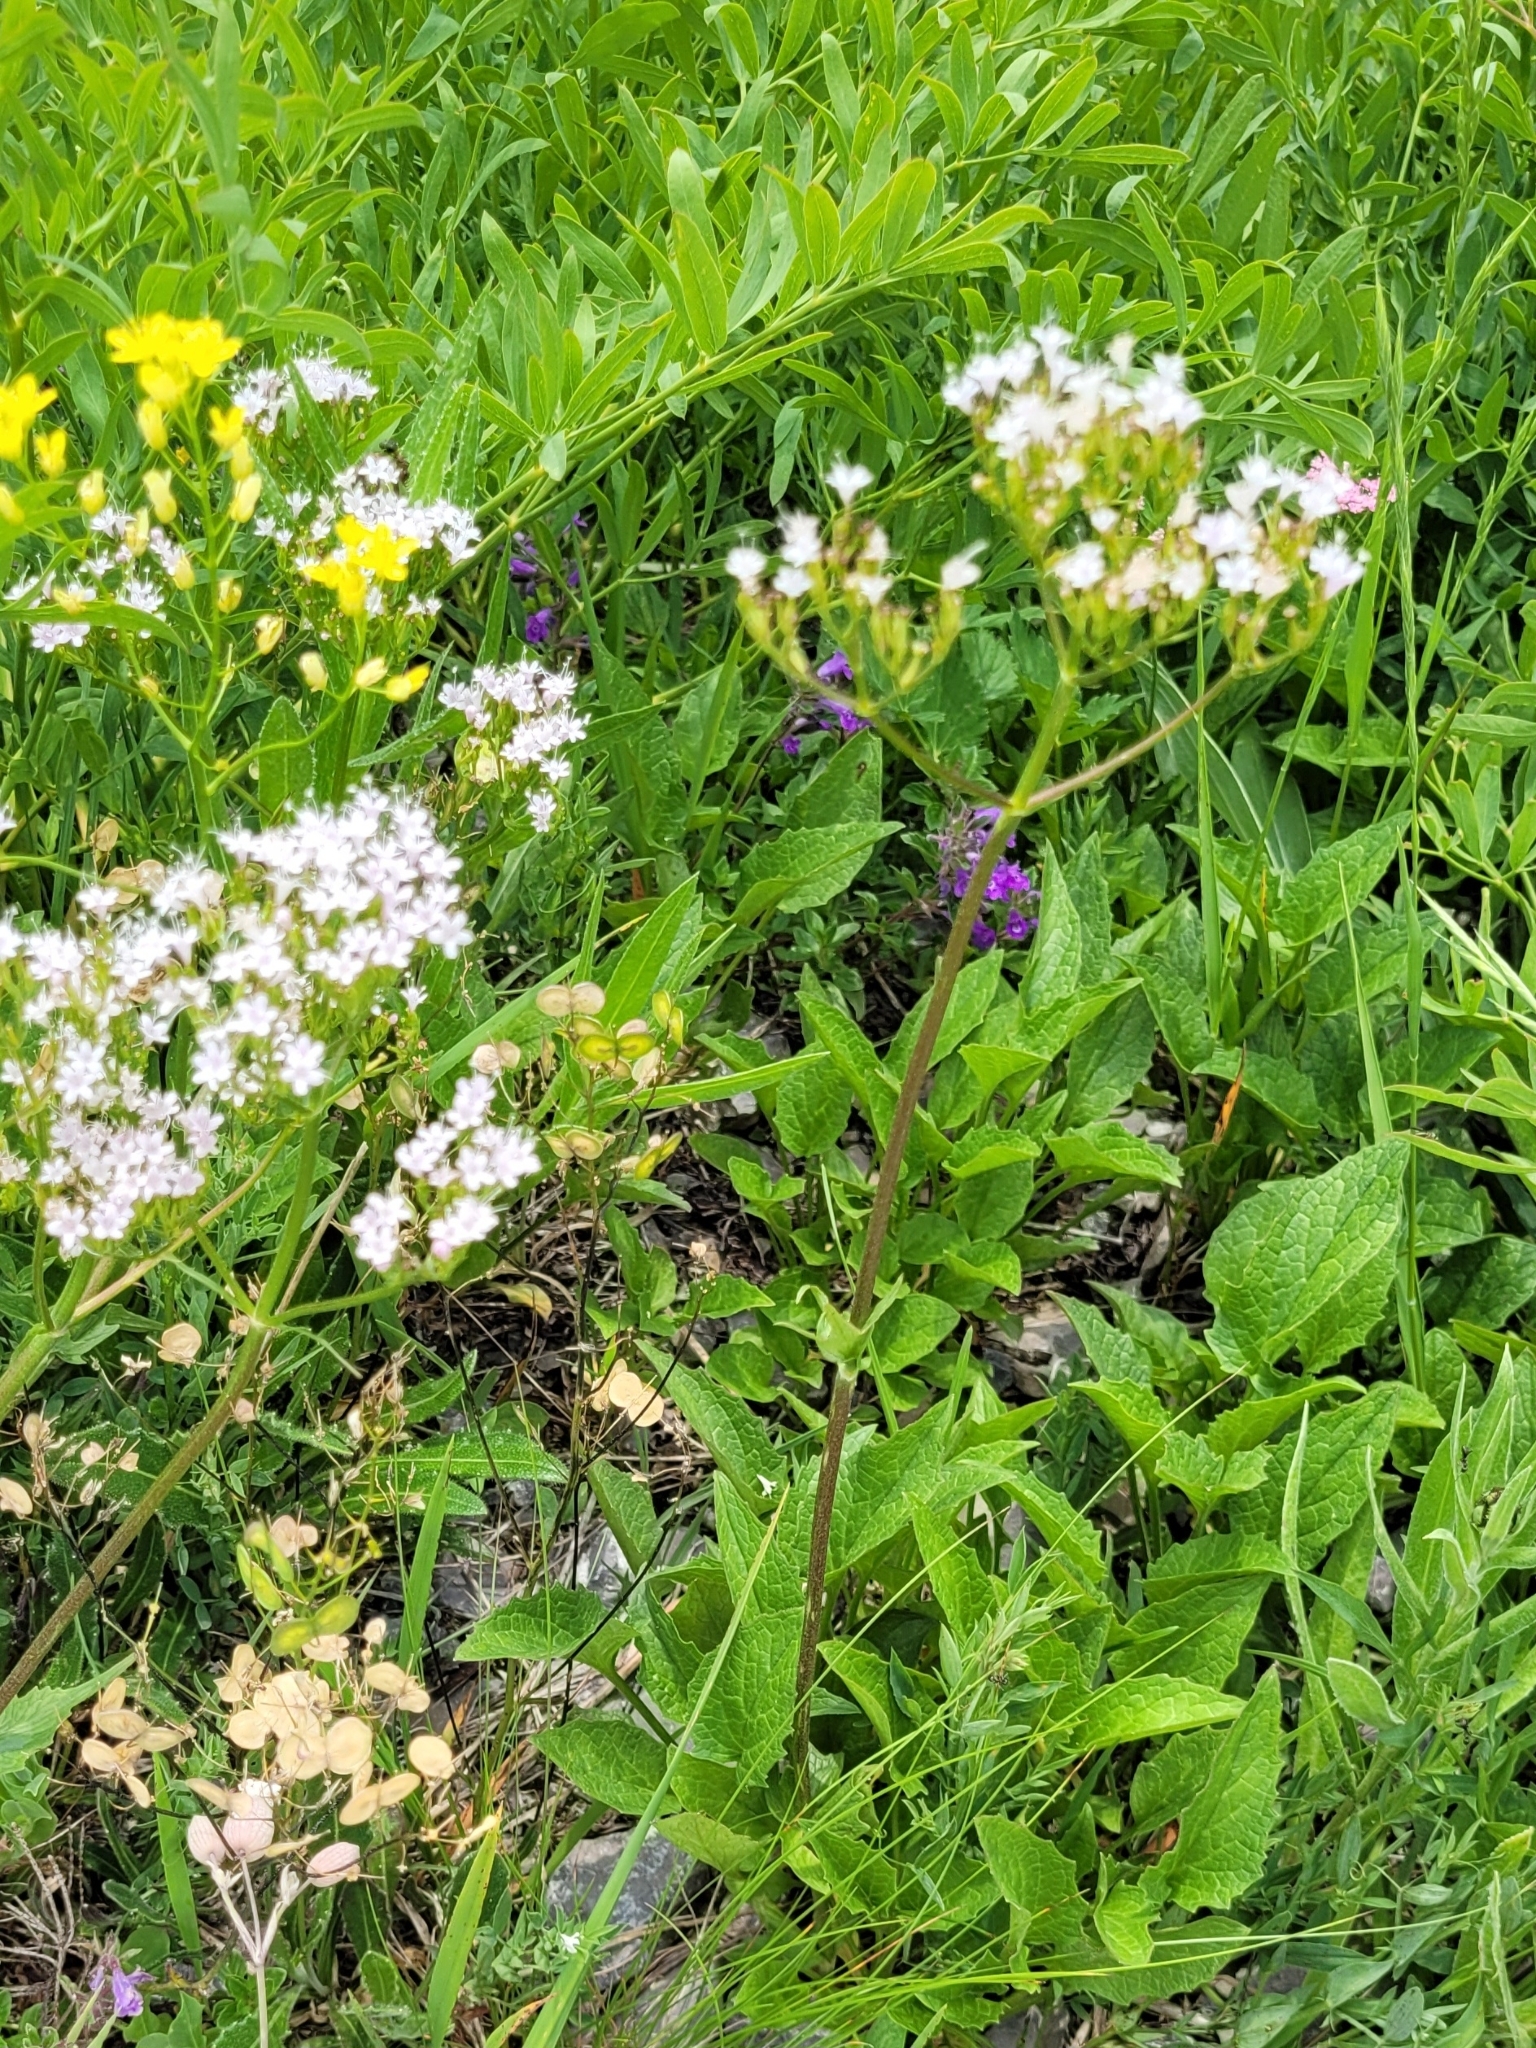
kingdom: Plantae
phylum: Tracheophyta
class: Magnoliopsida
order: Dipsacales
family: Caprifoliaceae
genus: Valeriana
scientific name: Valeriana montana
